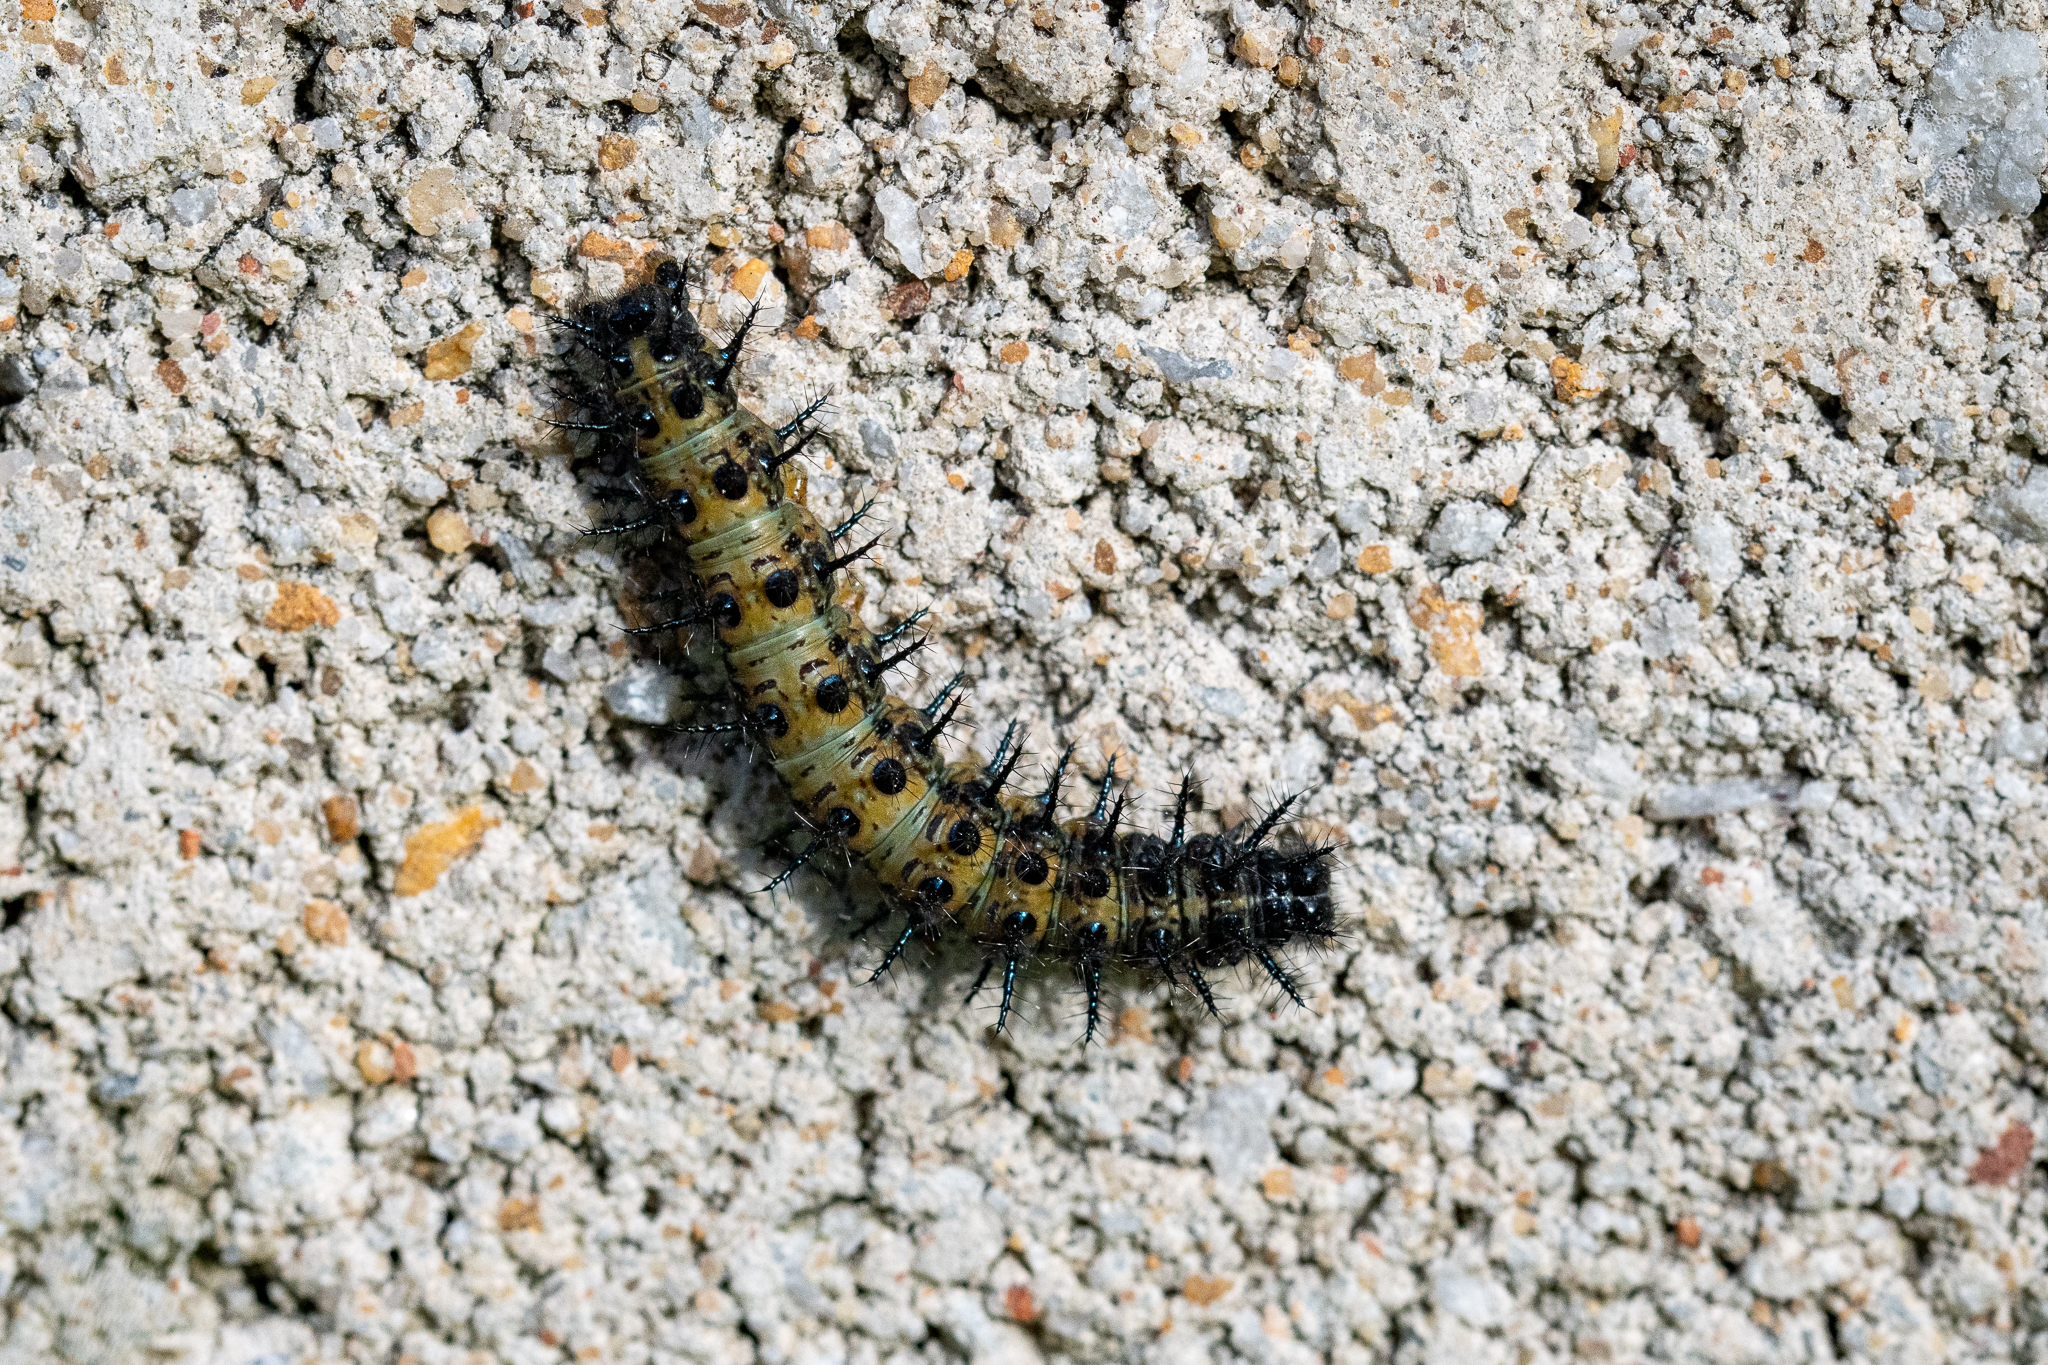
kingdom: Animalia
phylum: Arthropoda
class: Insecta
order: Lepidoptera
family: Nymphalidae
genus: Acraea
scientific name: Acraea horta
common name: Garden acraea
